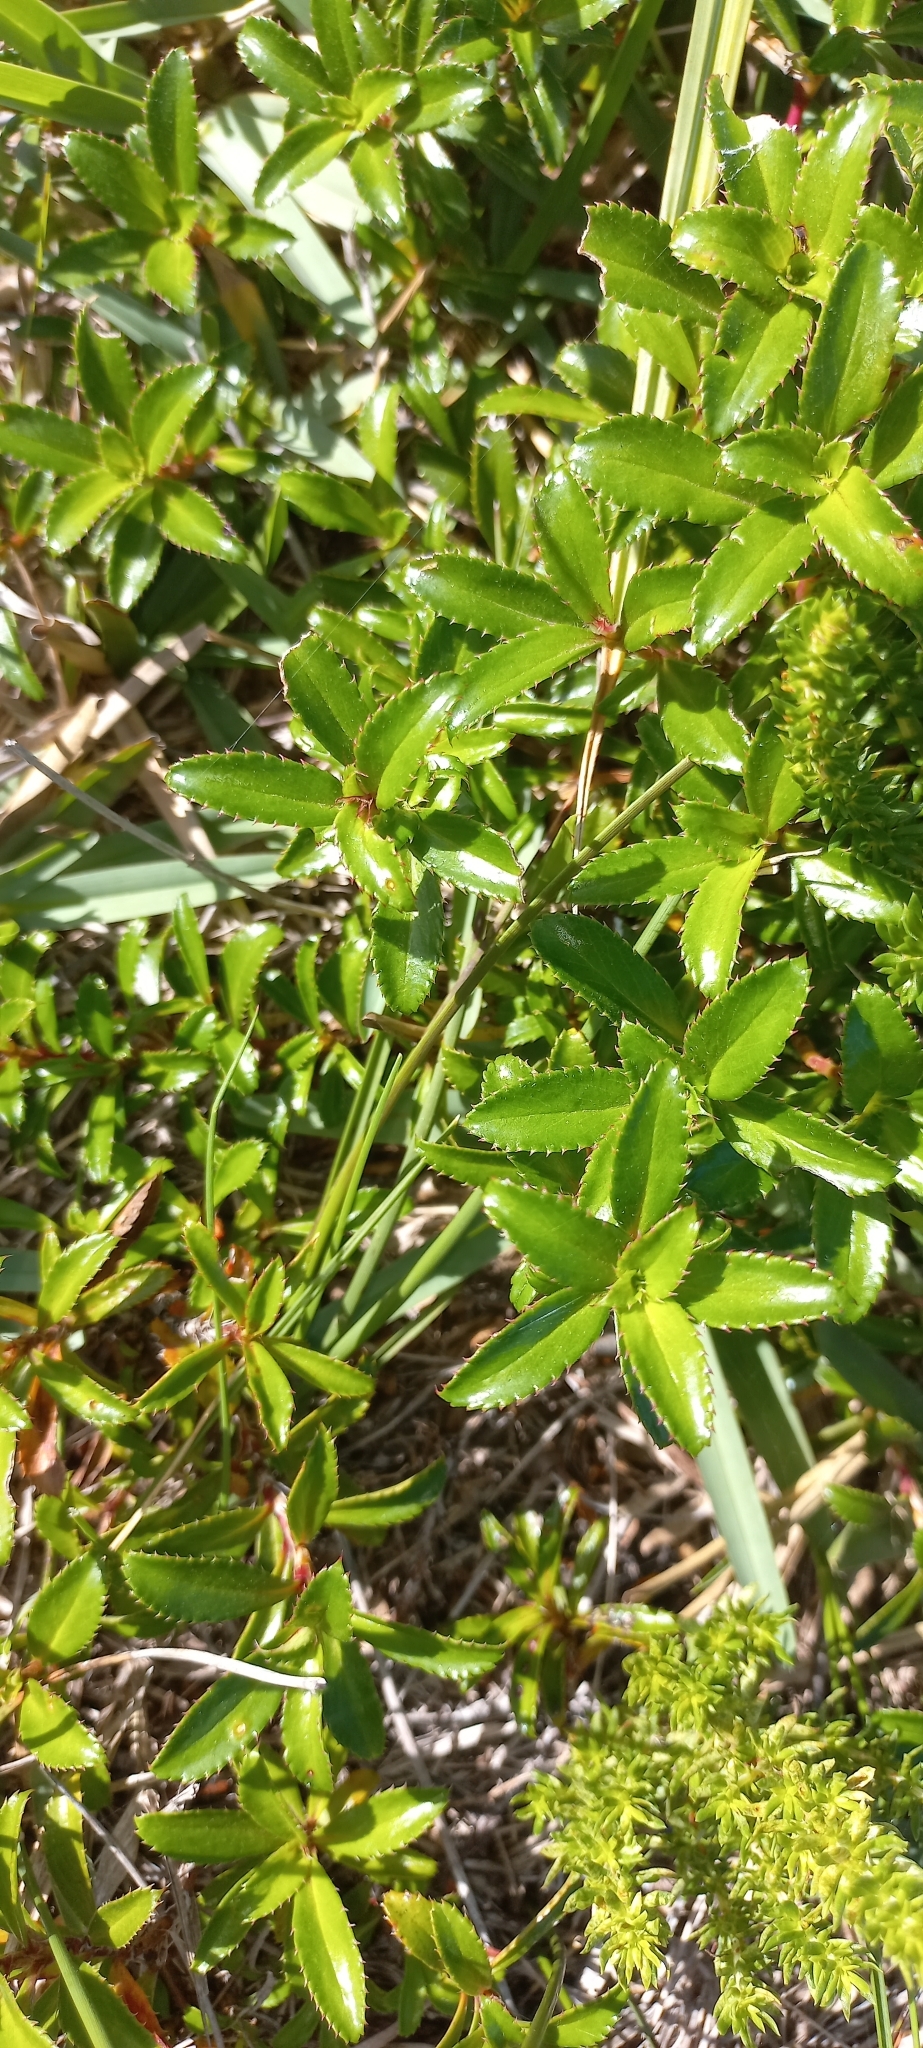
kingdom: Plantae
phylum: Tracheophyta
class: Magnoliopsida
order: Rosales
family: Rosaceae
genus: Cliffortia
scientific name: Cliffortia ferruginea
